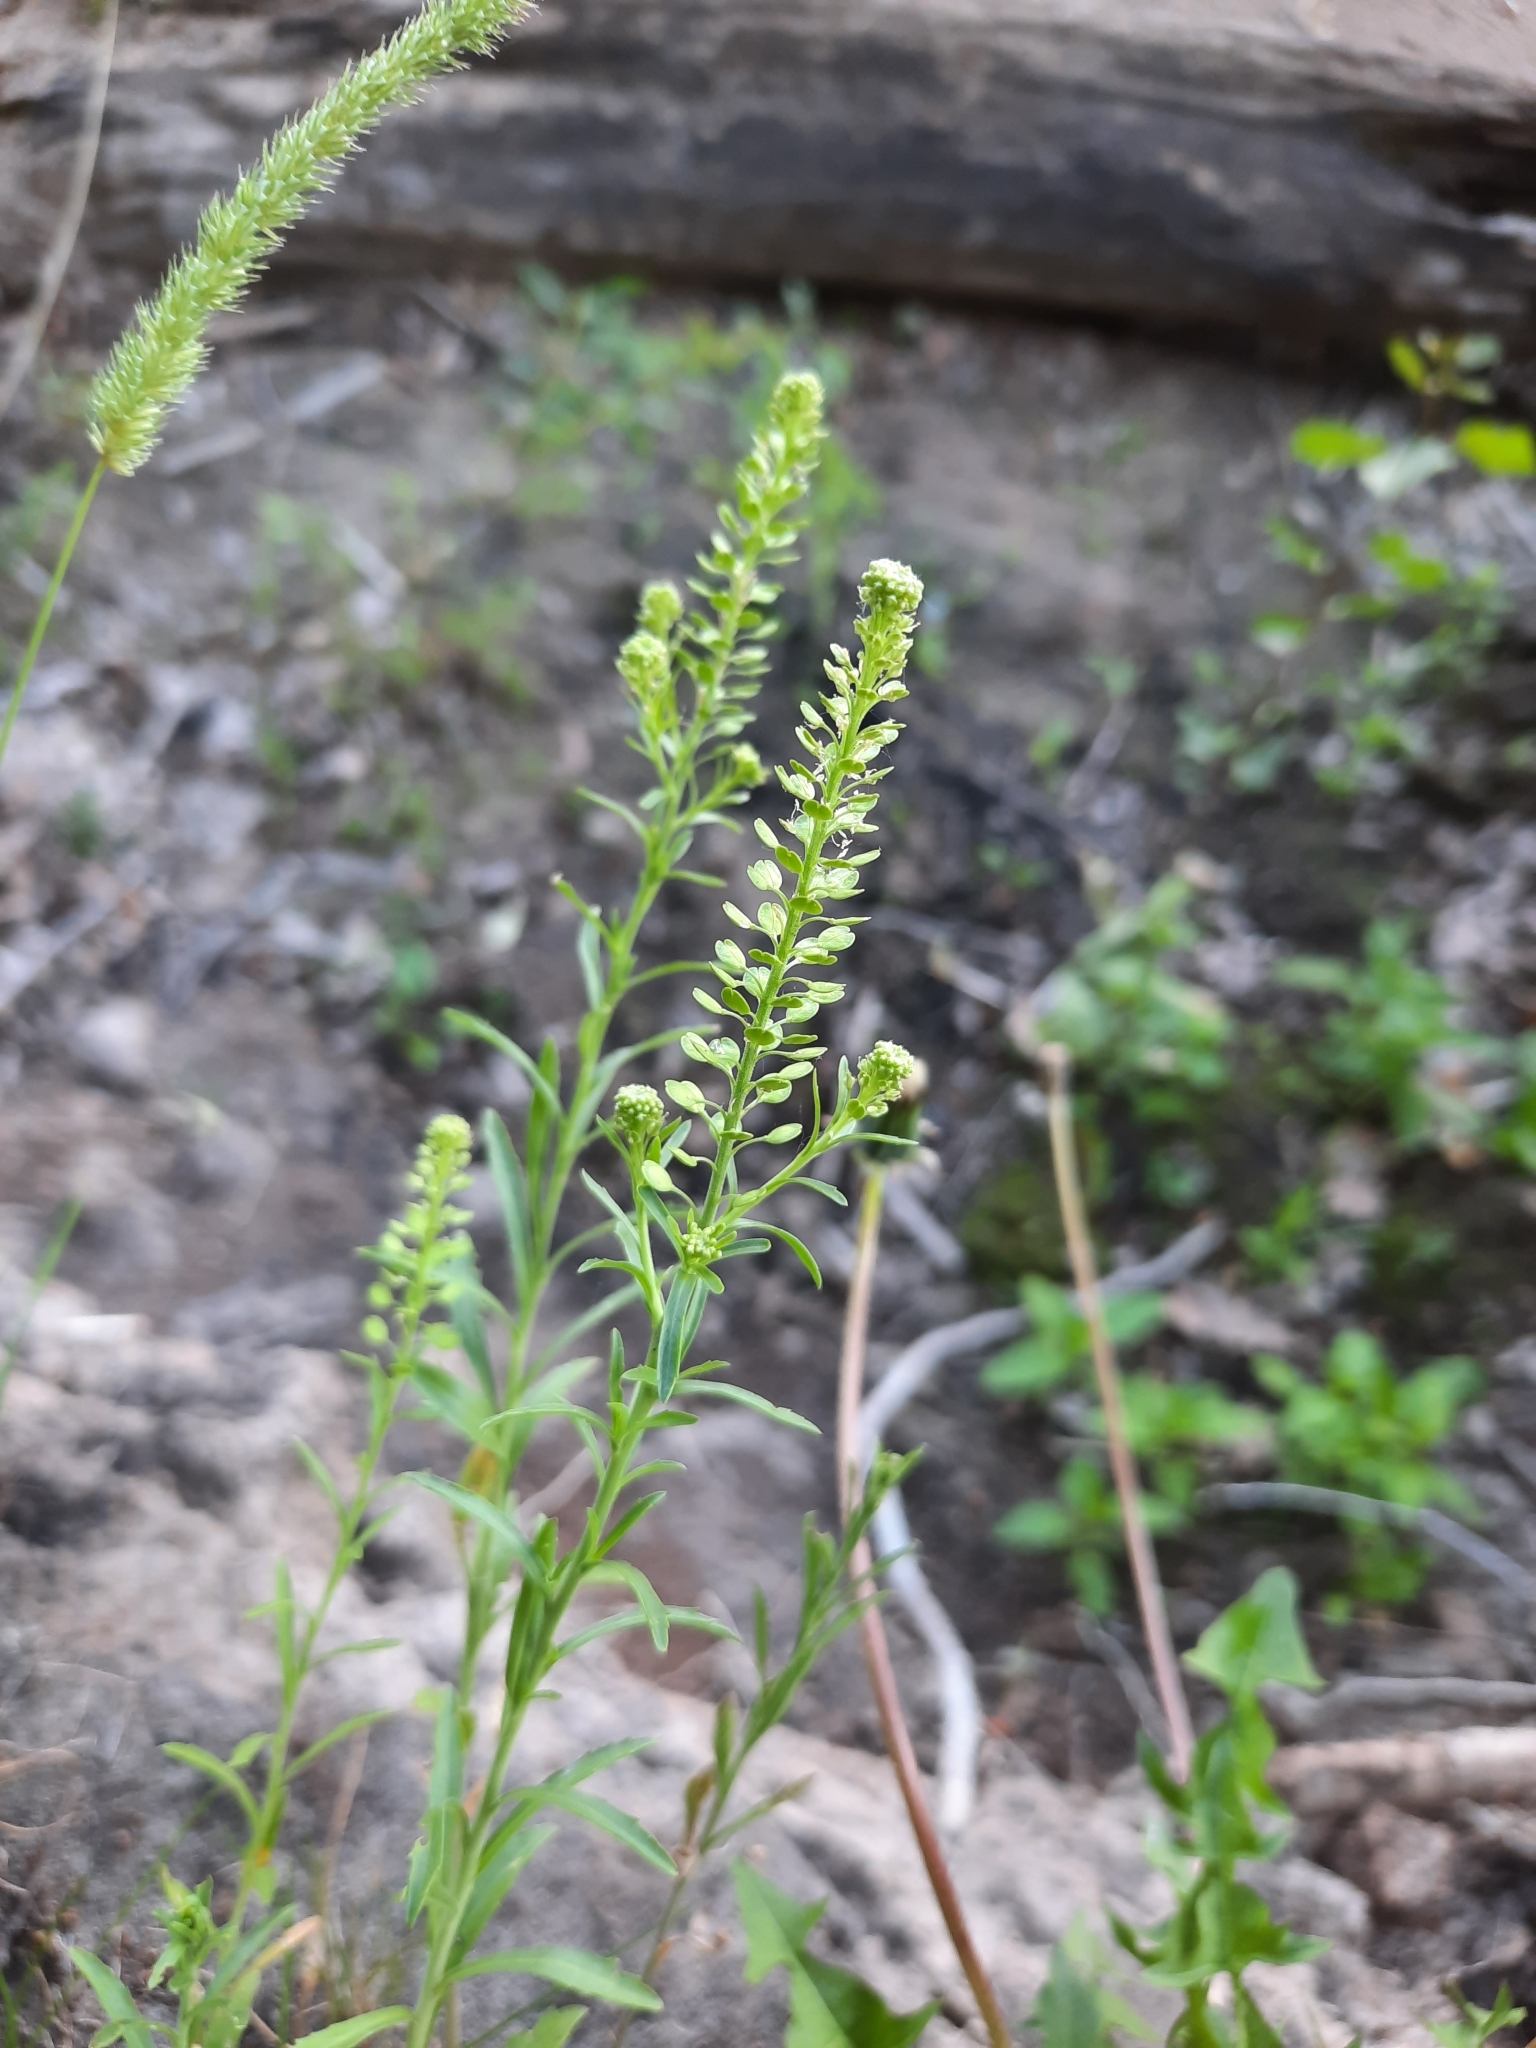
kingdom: Plantae
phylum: Tracheophyta
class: Magnoliopsida
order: Brassicales
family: Brassicaceae
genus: Lepidium
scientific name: Lepidium densiflorum
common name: Miner's pepperwort
